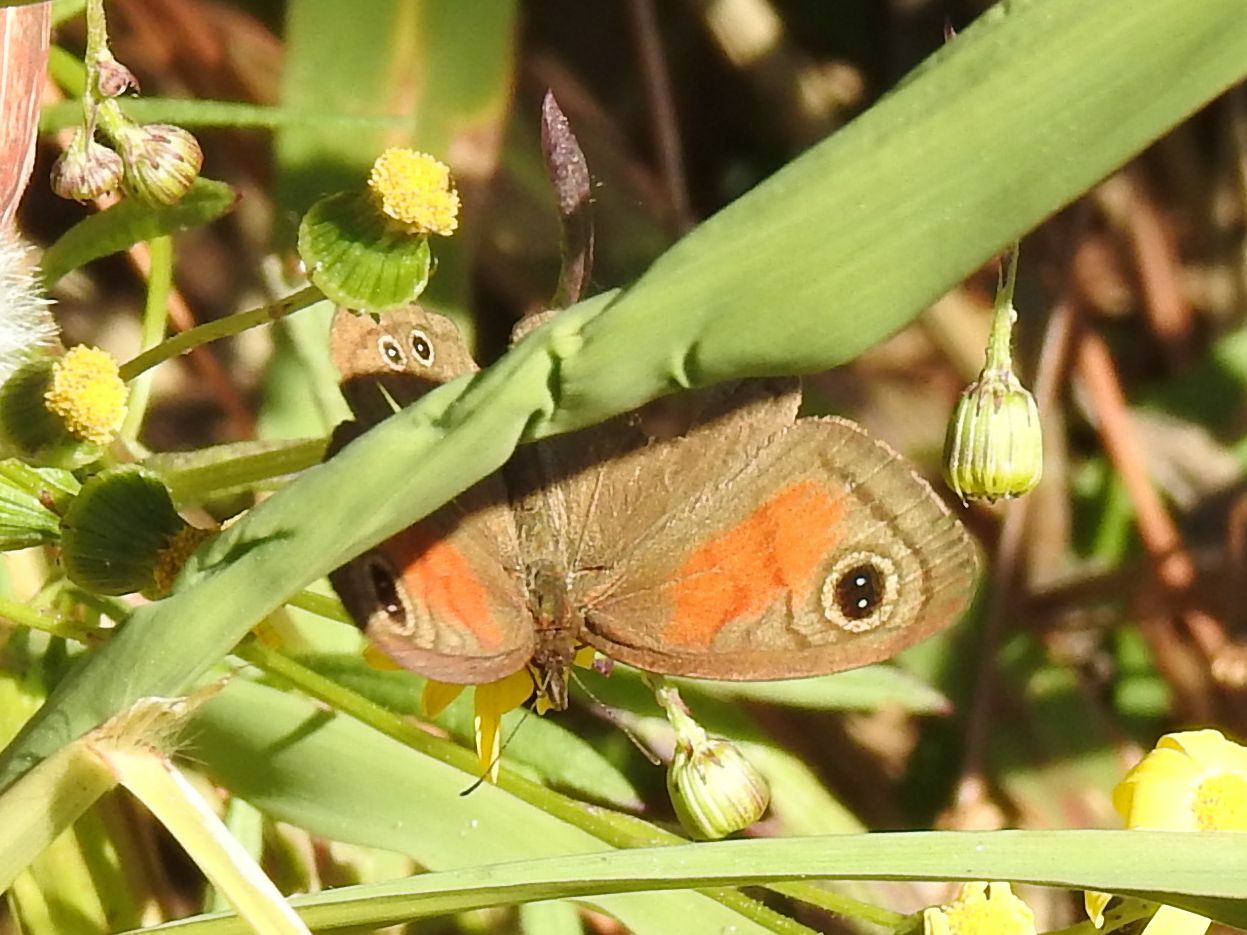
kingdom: Animalia
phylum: Arthropoda
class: Insecta
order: Lepidoptera
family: Nymphalidae
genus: Cassionympha
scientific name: Cassionympha cassius
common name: Rainforest brown
